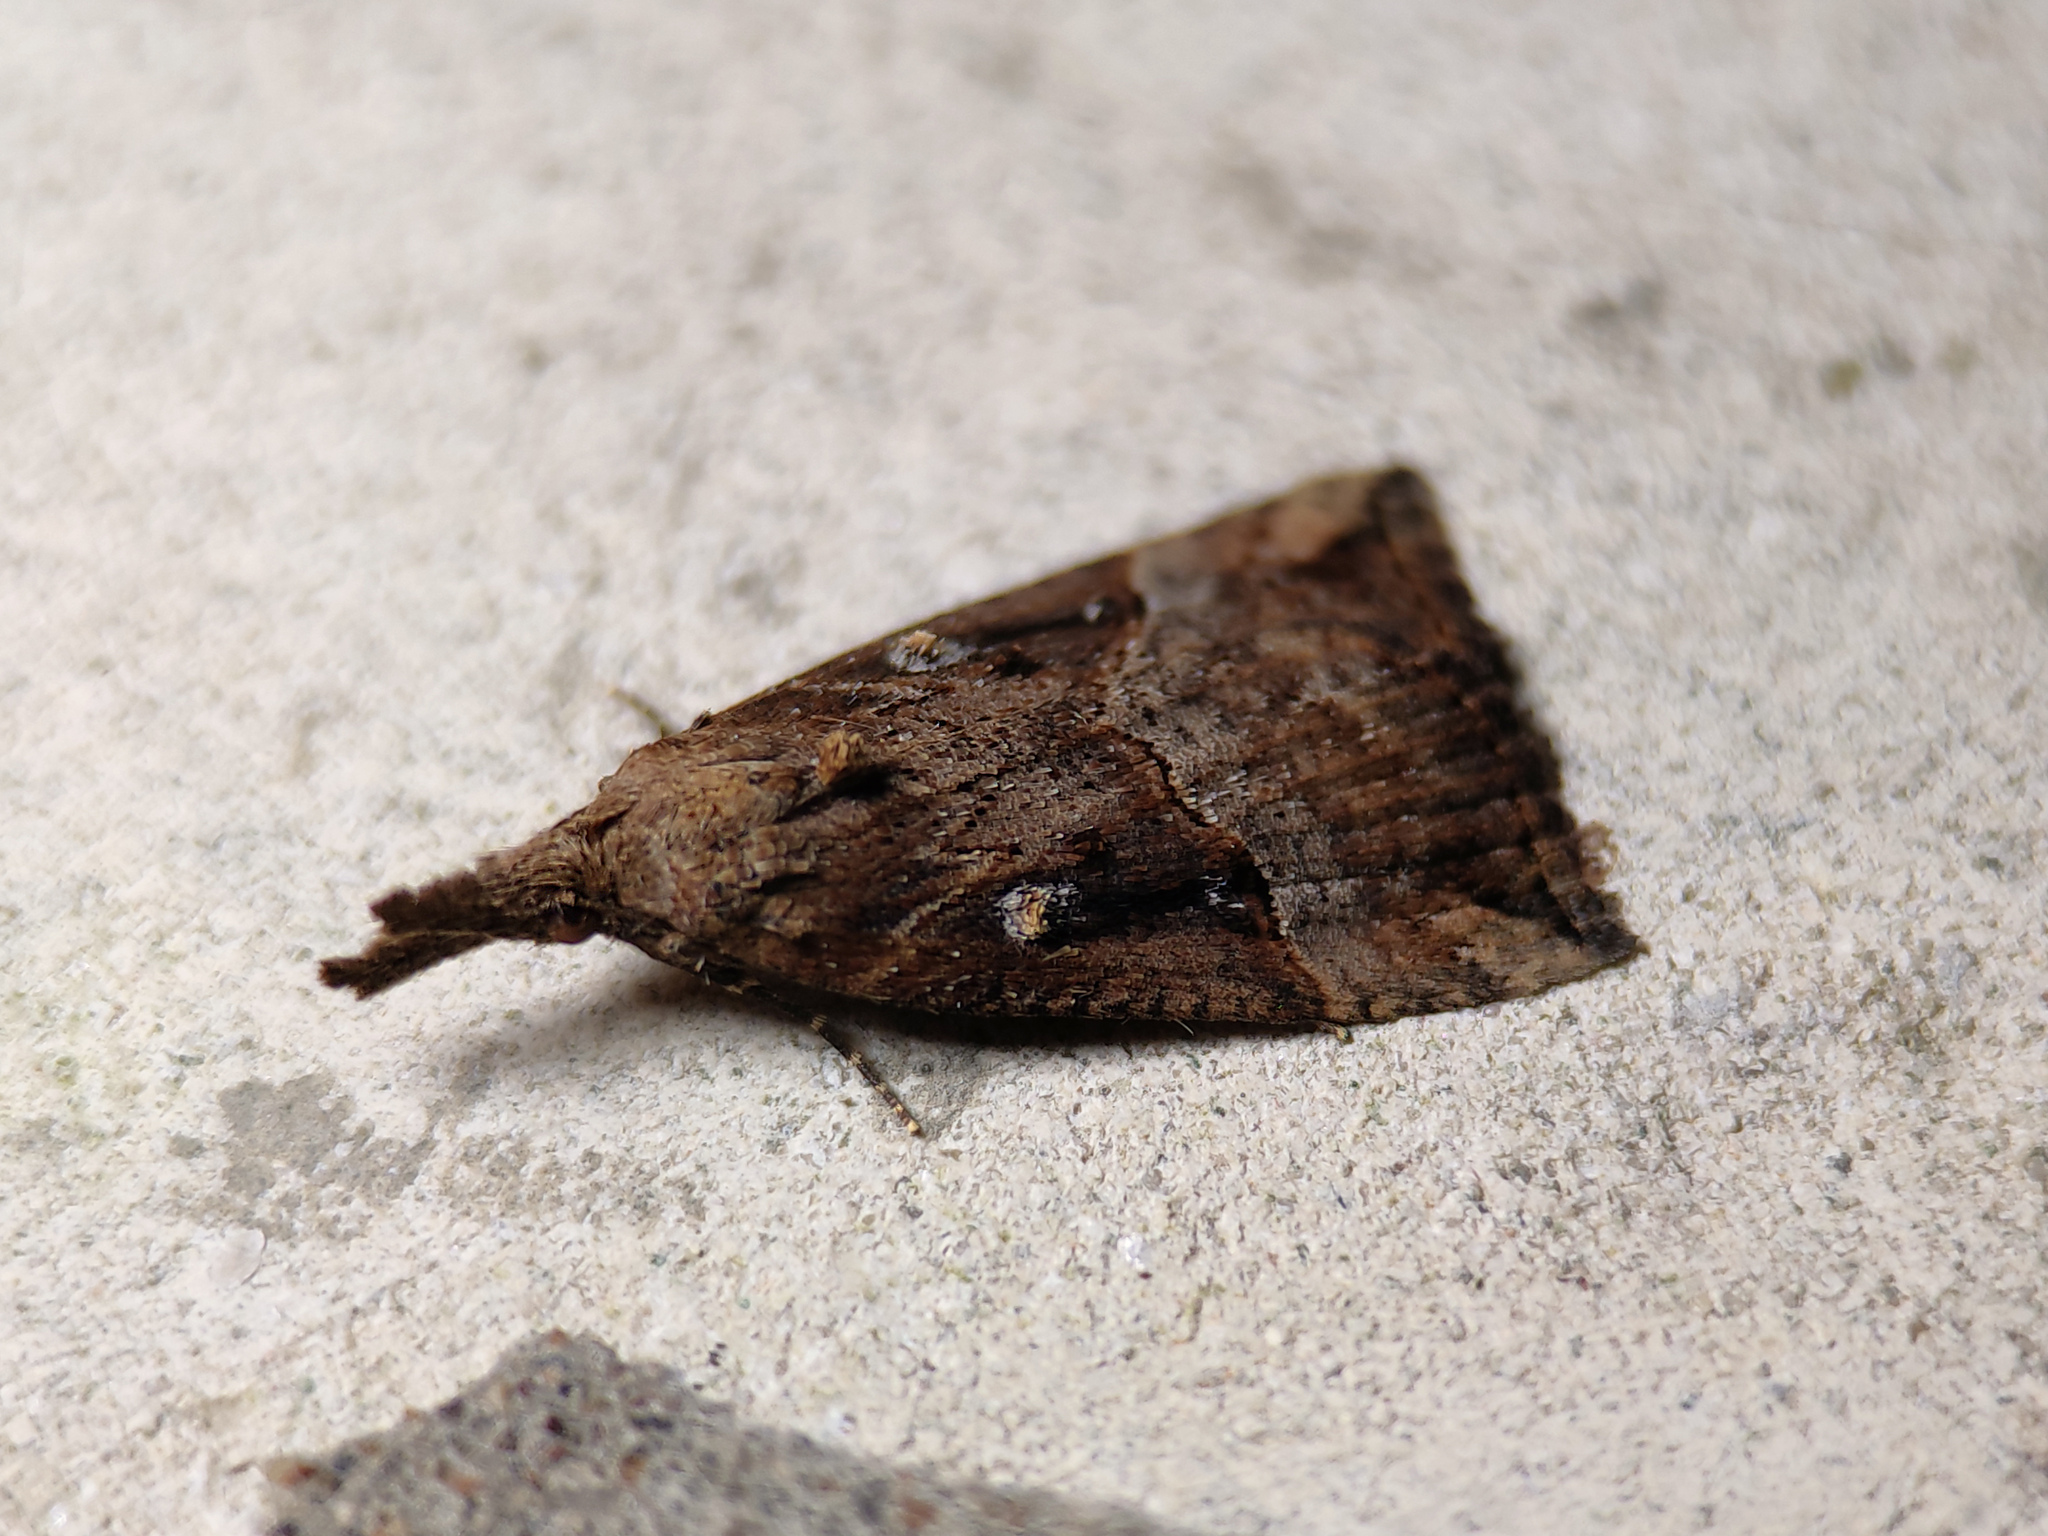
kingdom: Animalia
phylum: Arthropoda
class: Insecta
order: Lepidoptera
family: Erebidae
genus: Hypena
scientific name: Hypena rostralis
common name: Buttoned snout
